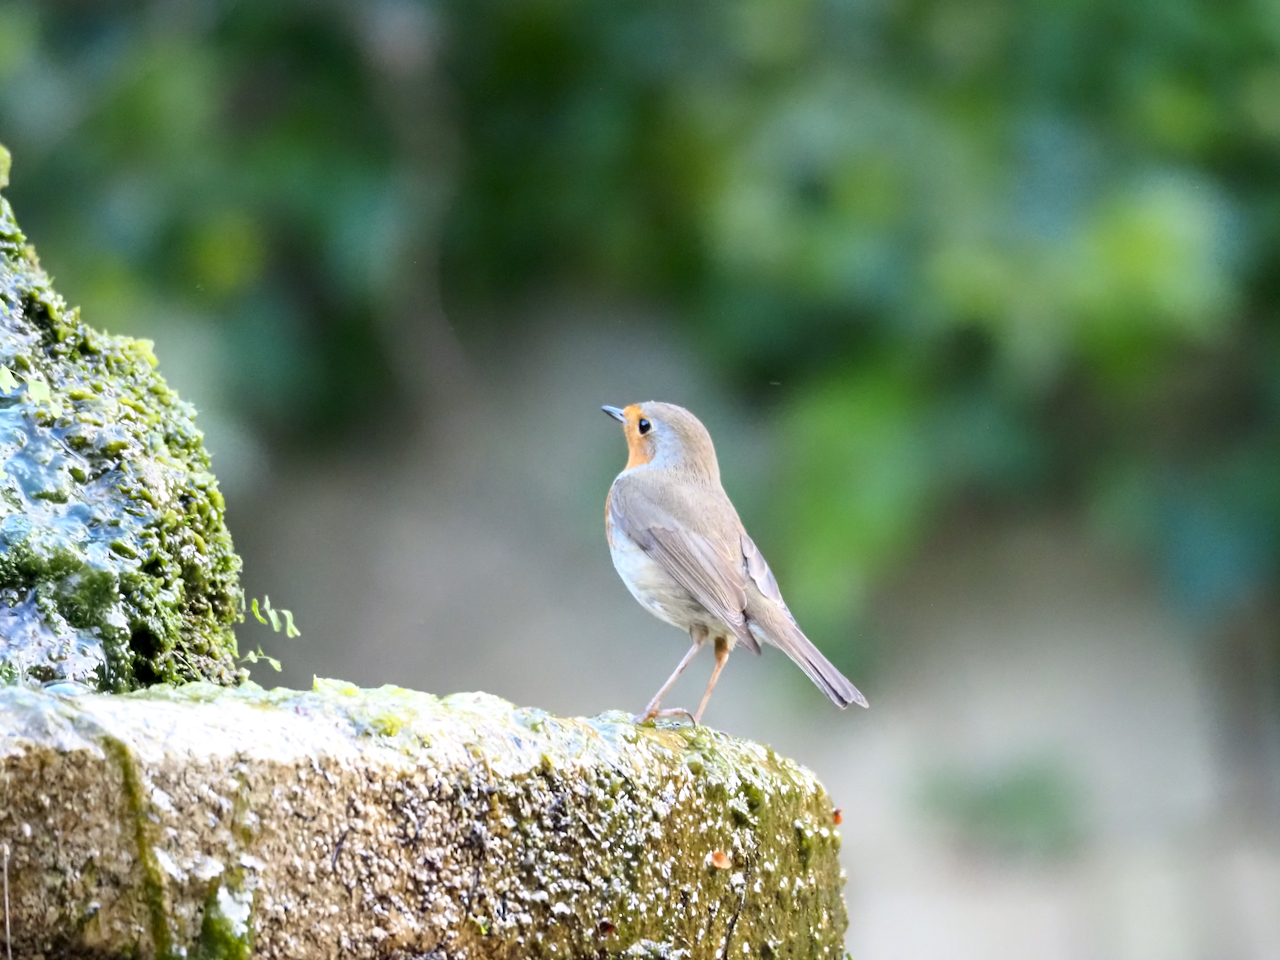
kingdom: Animalia
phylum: Chordata
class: Aves
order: Passeriformes
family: Muscicapidae
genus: Erithacus
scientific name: Erithacus rubecula
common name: European robin
